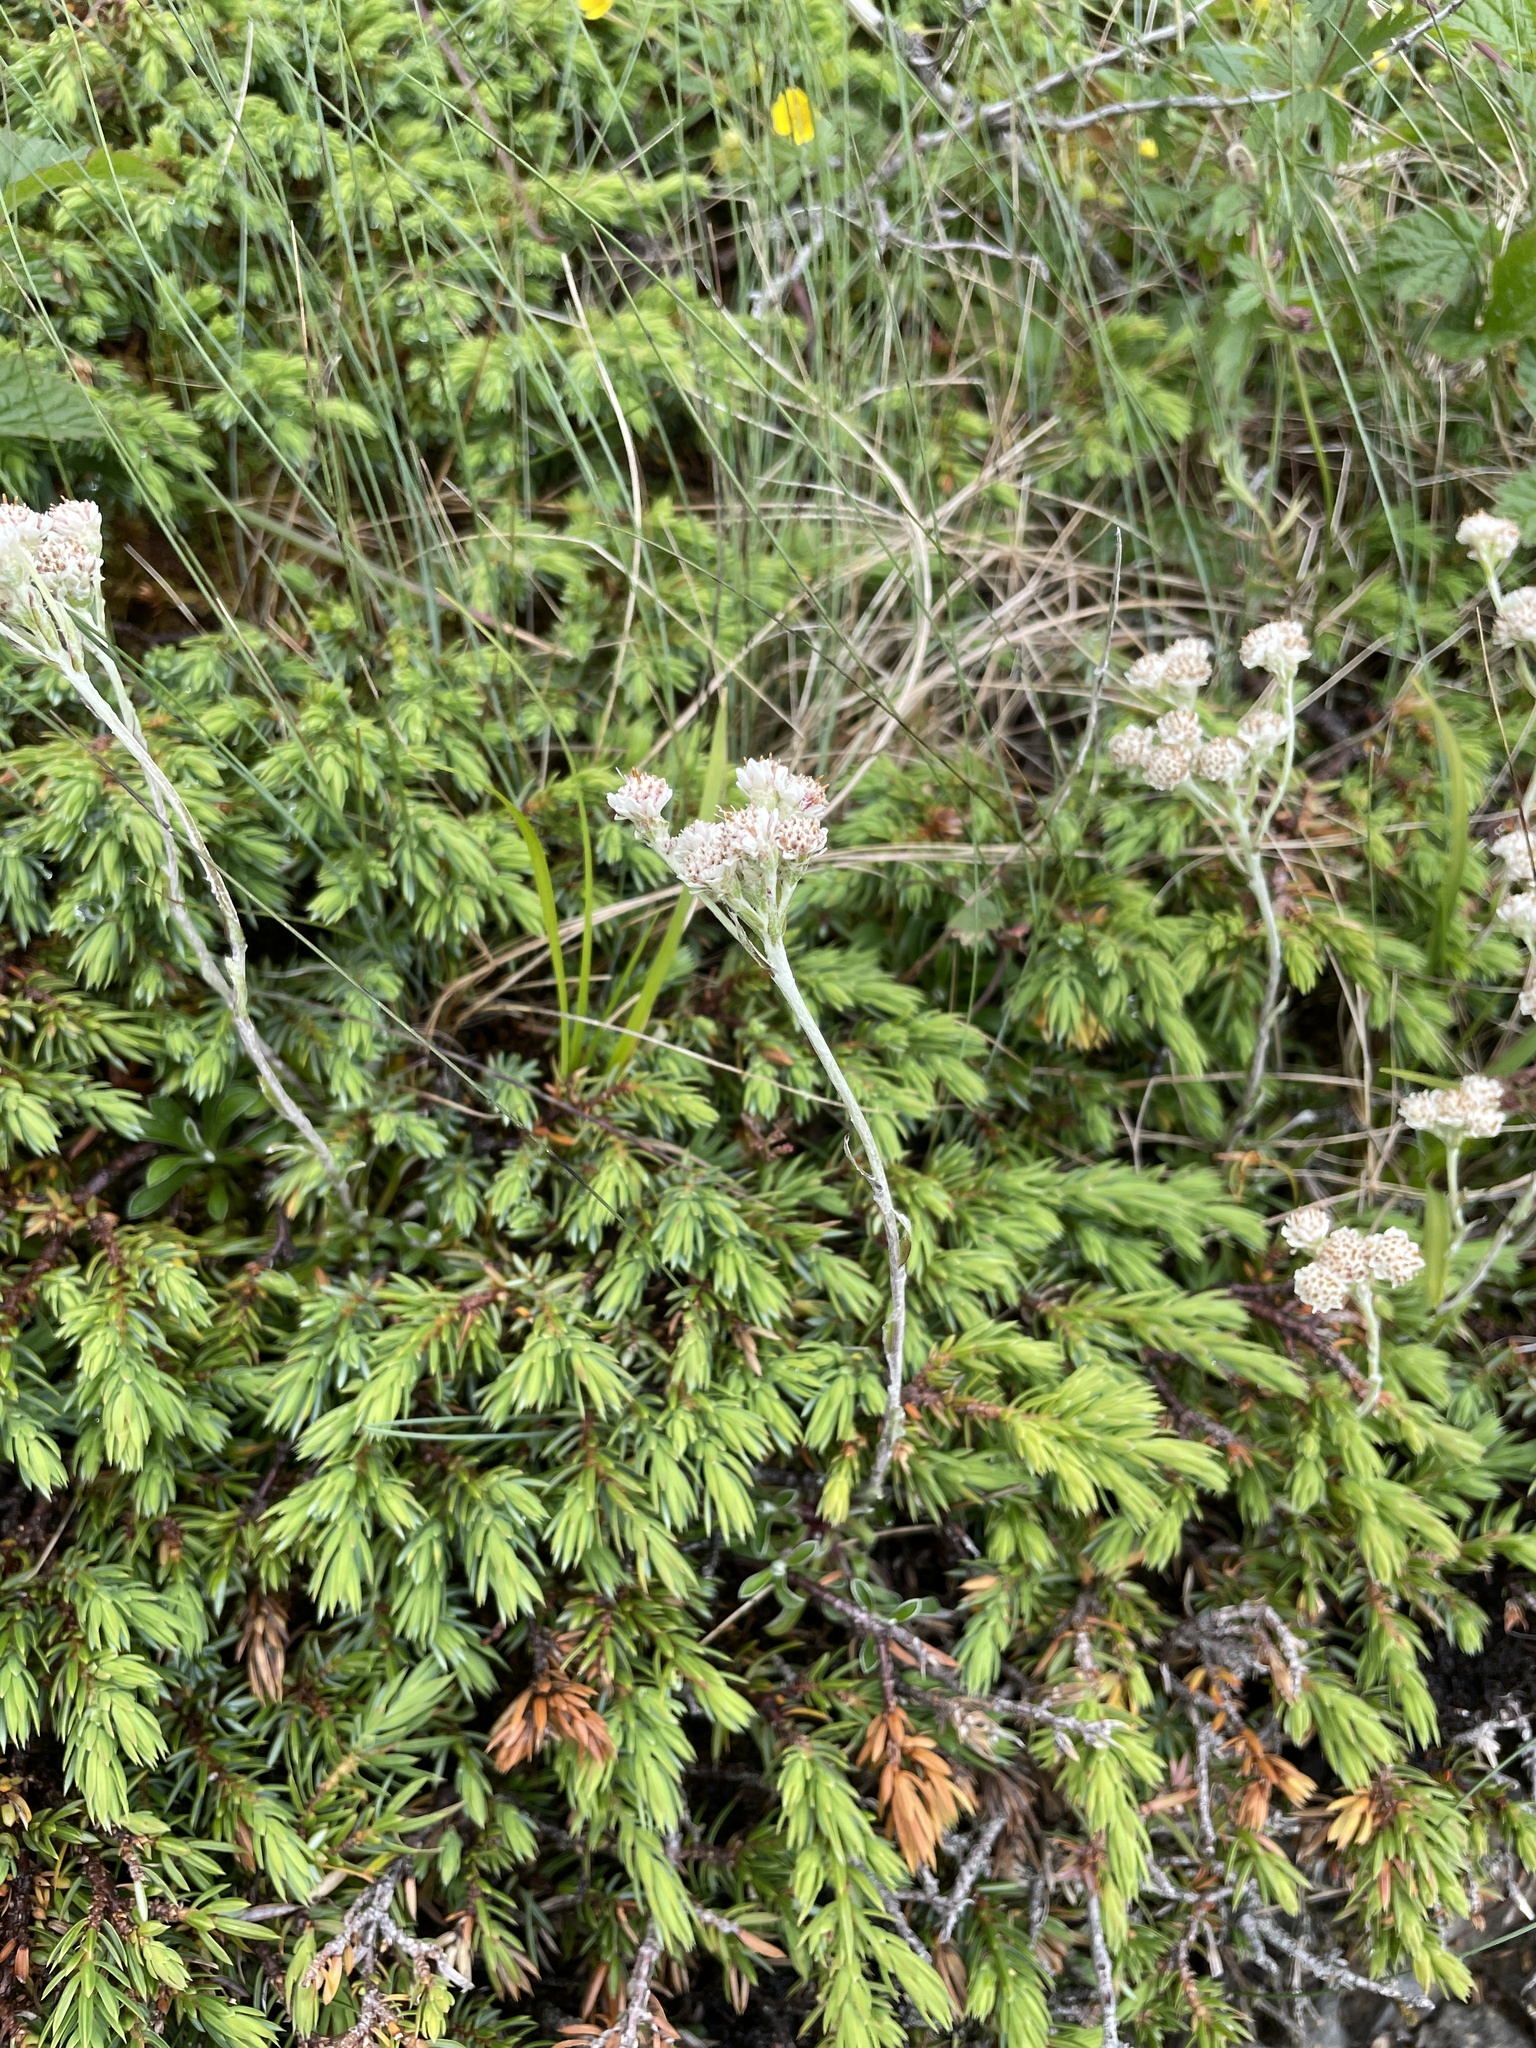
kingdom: Plantae
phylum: Tracheophyta
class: Magnoliopsida
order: Asterales
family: Asteraceae
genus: Antennaria
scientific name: Antennaria dioica
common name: Mountain everlasting
